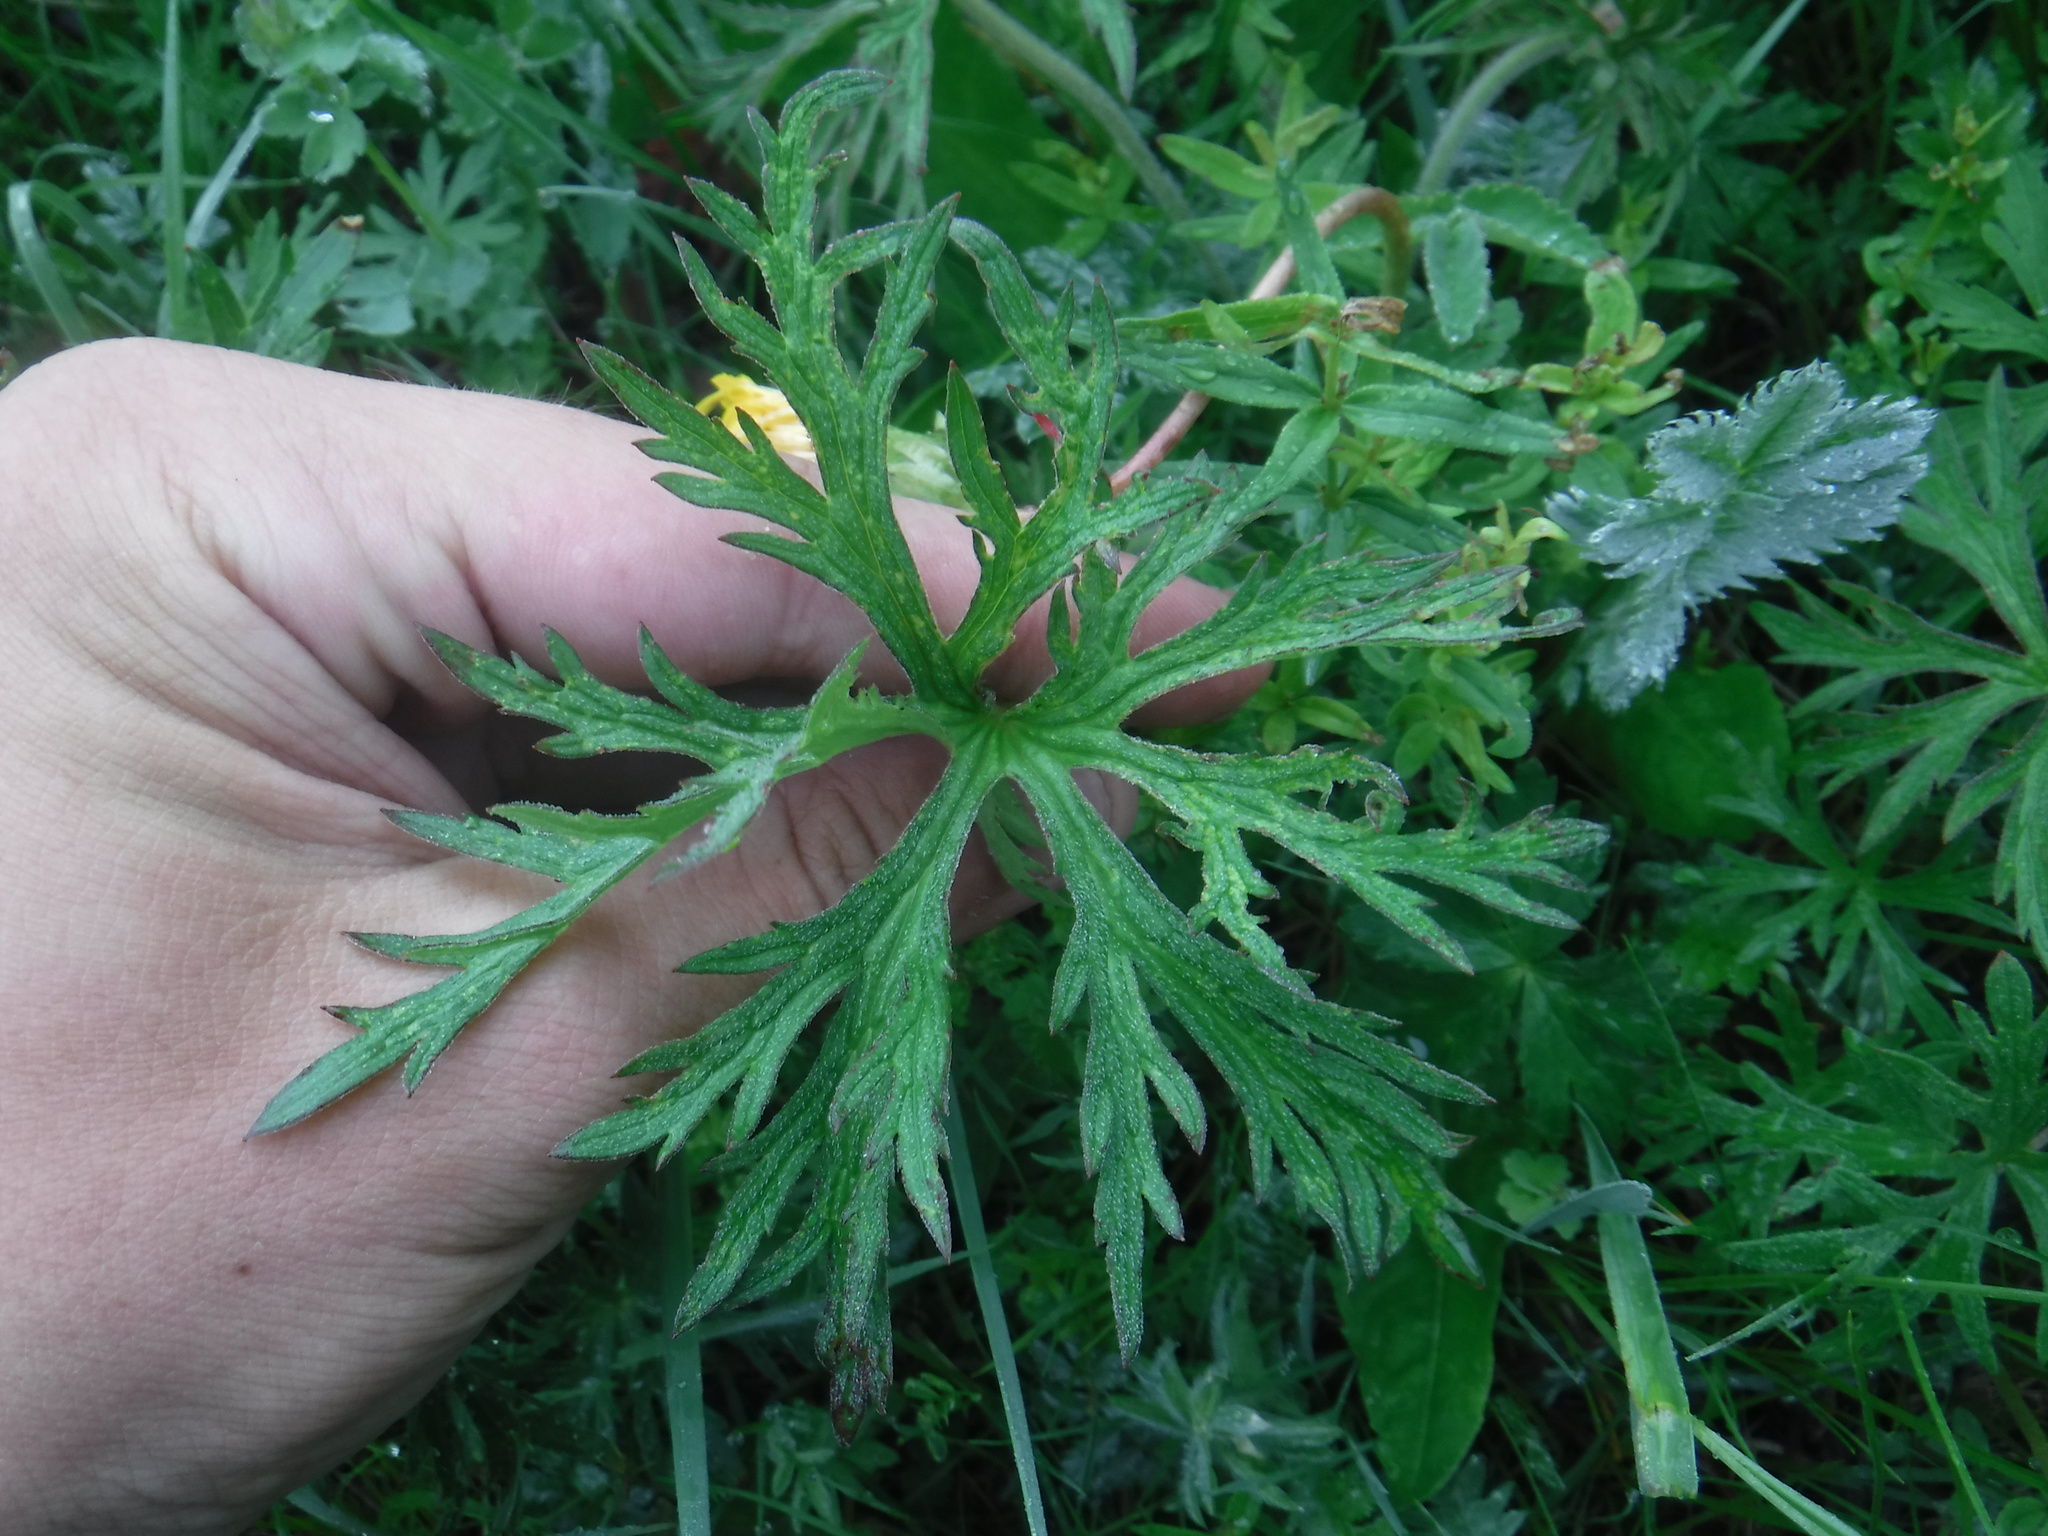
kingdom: Plantae
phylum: Tracheophyta
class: Magnoliopsida
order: Geraniales
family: Geraniaceae
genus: Geranium
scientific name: Geranium pseudosibiricum
